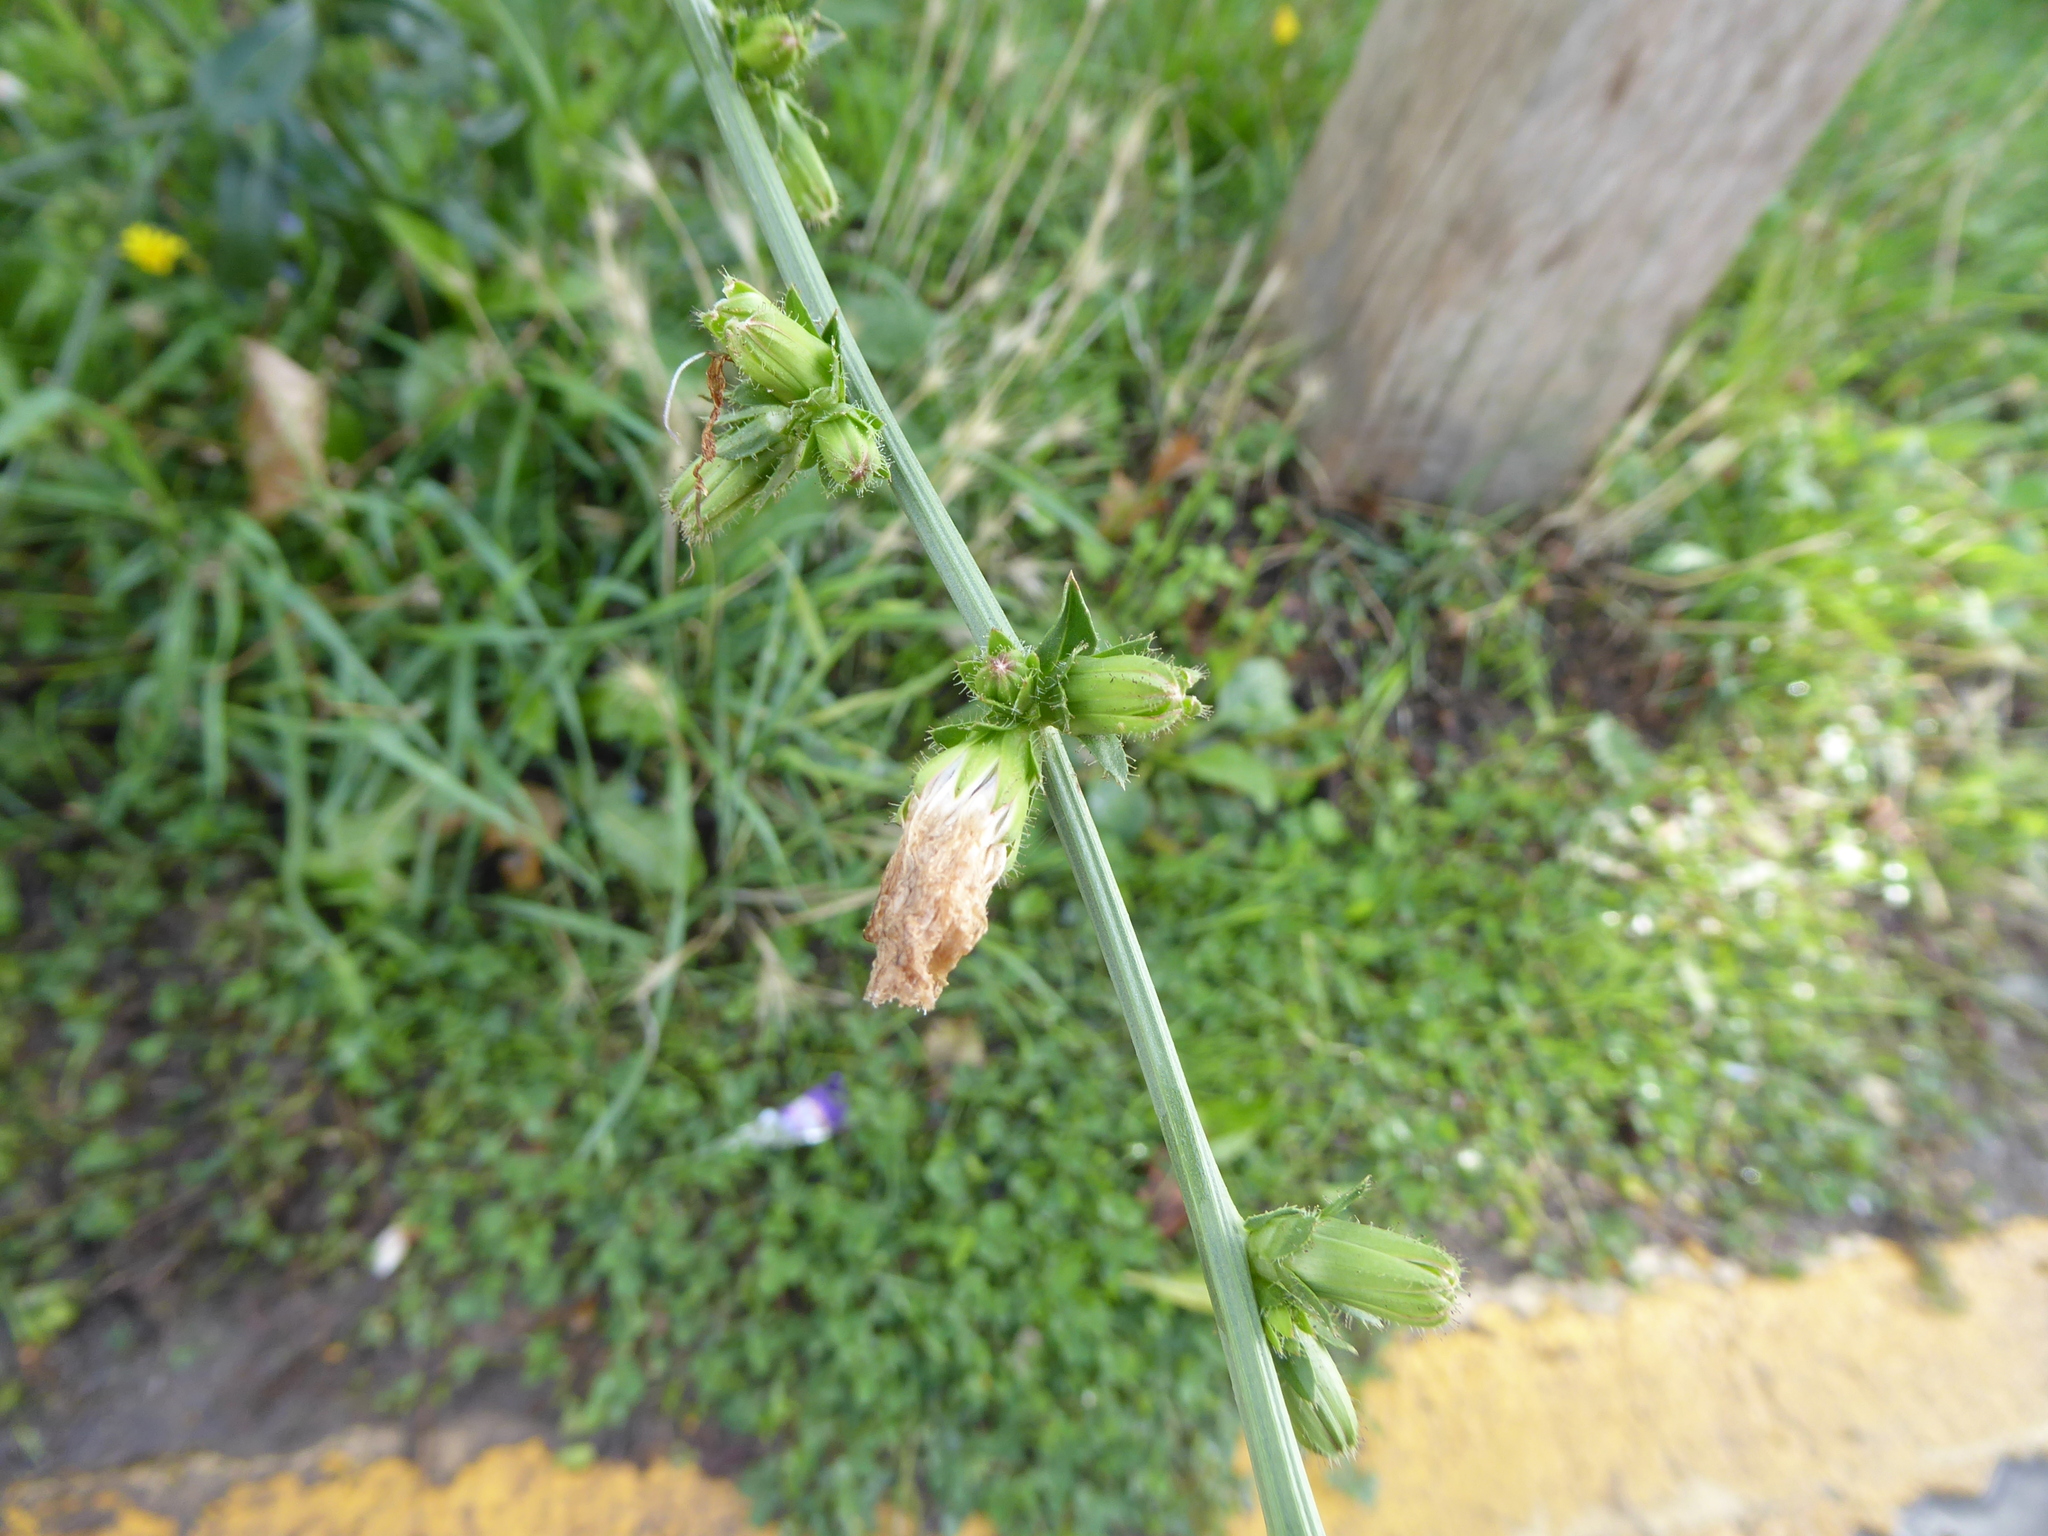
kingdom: Plantae
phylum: Tracheophyta
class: Magnoliopsida
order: Asterales
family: Asteraceae
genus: Cichorium
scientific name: Cichorium intybus
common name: Chicory
